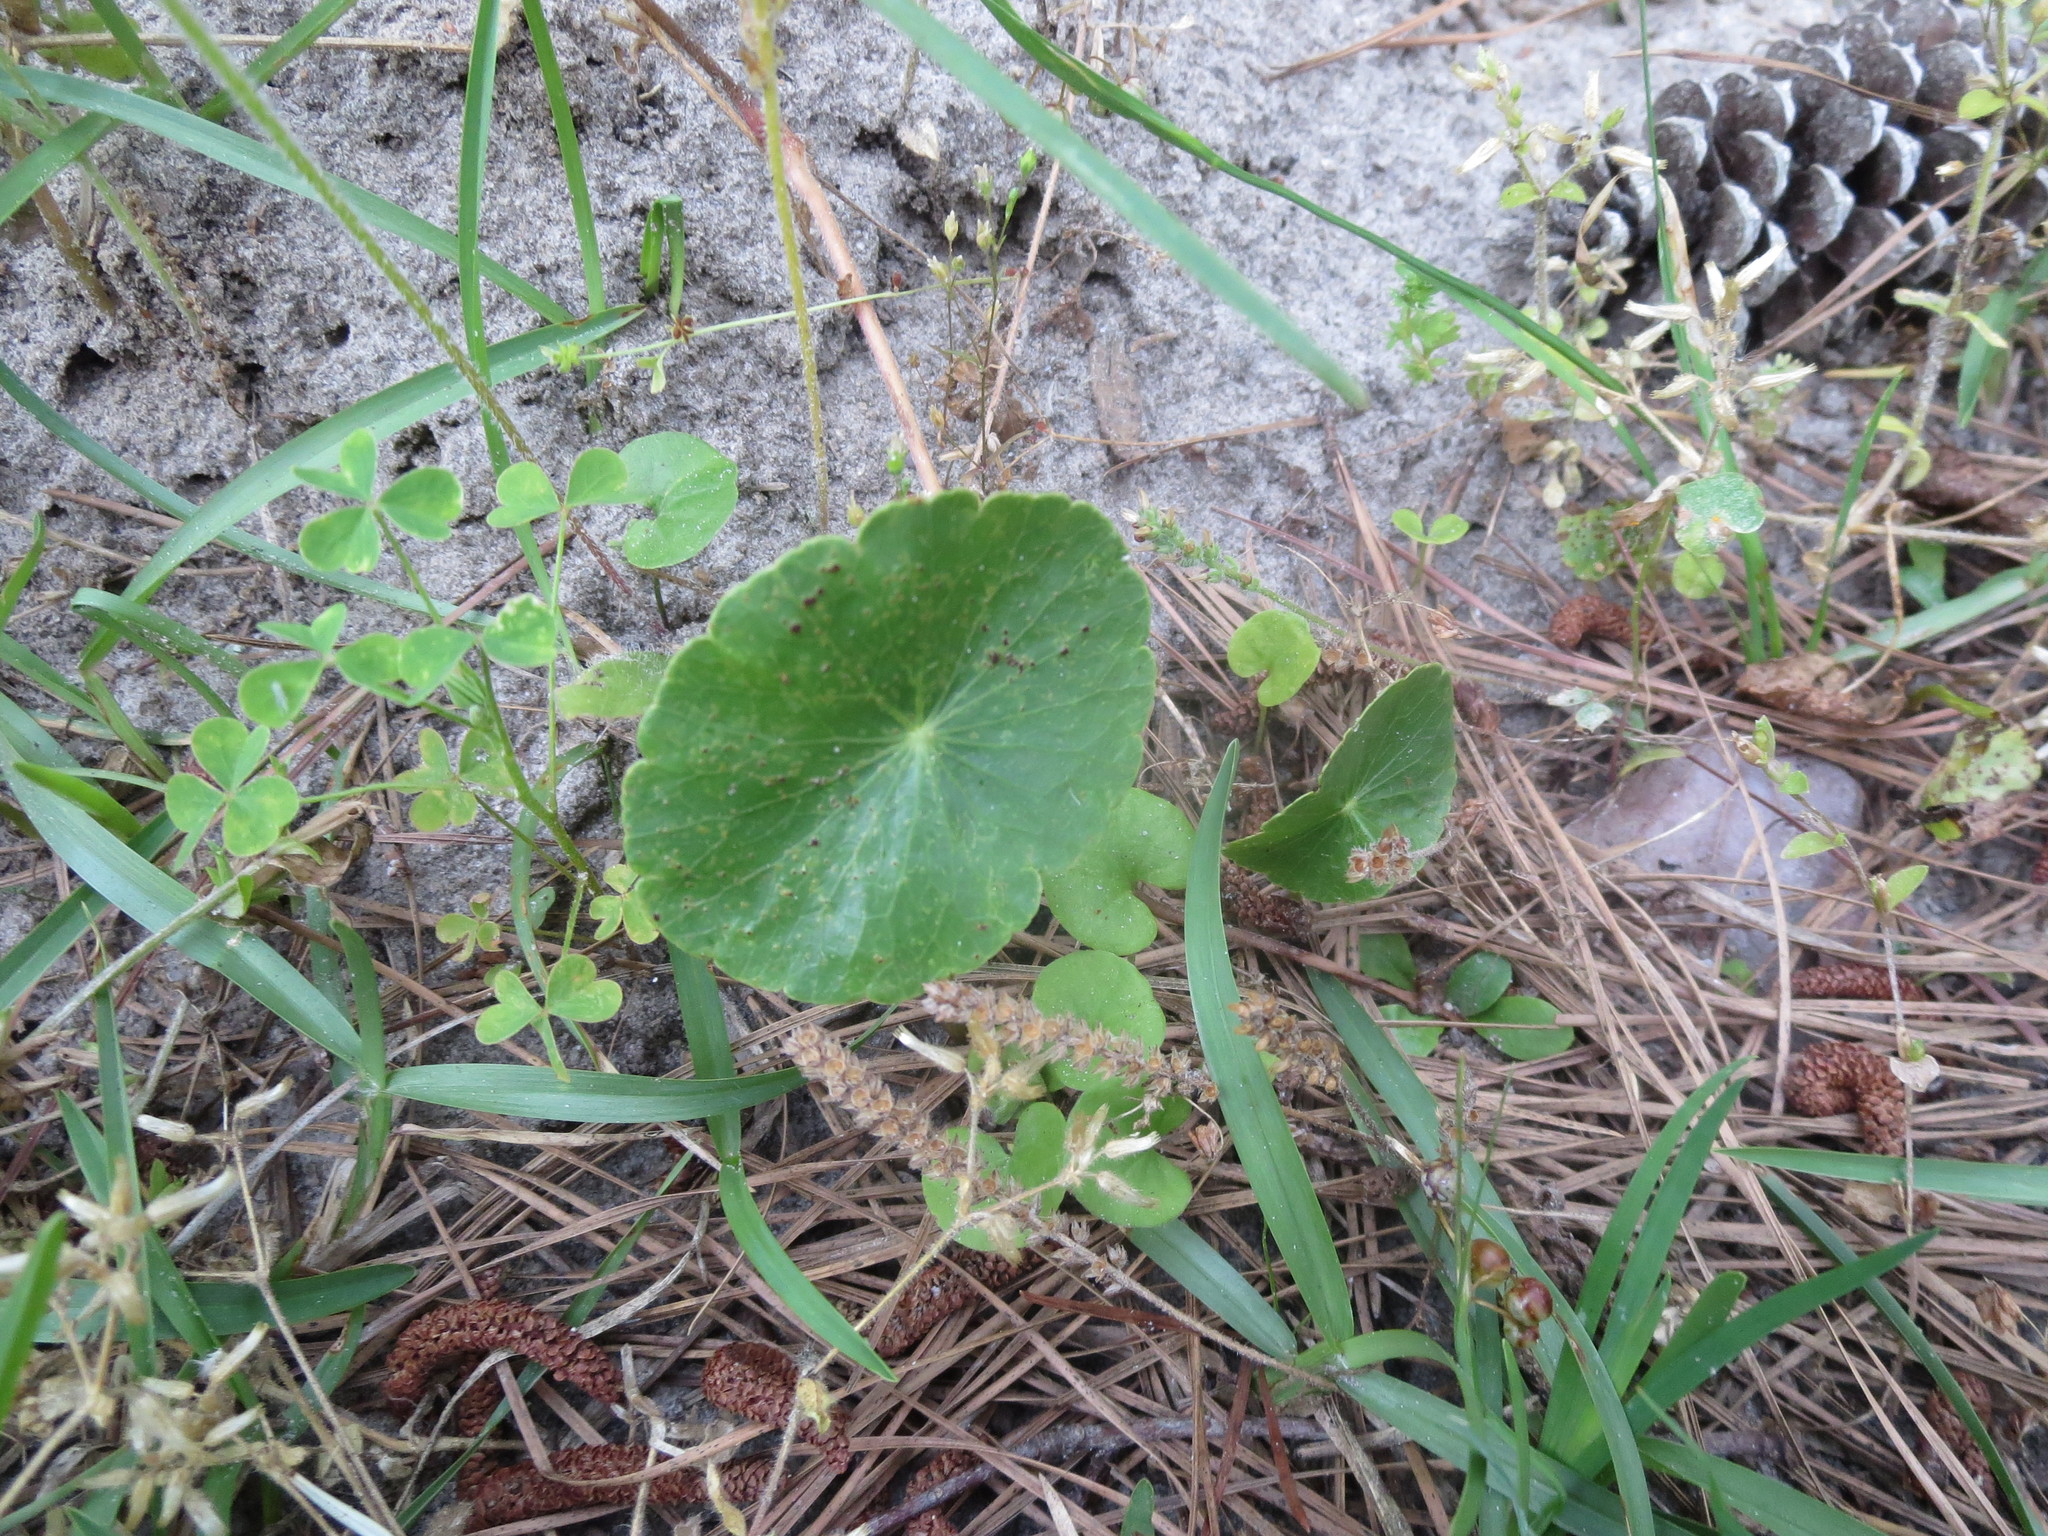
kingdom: Plantae
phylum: Tracheophyta
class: Magnoliopsida
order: Apiales
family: Araliaceae
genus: Hydrocotyle
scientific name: Hydrocotyle
